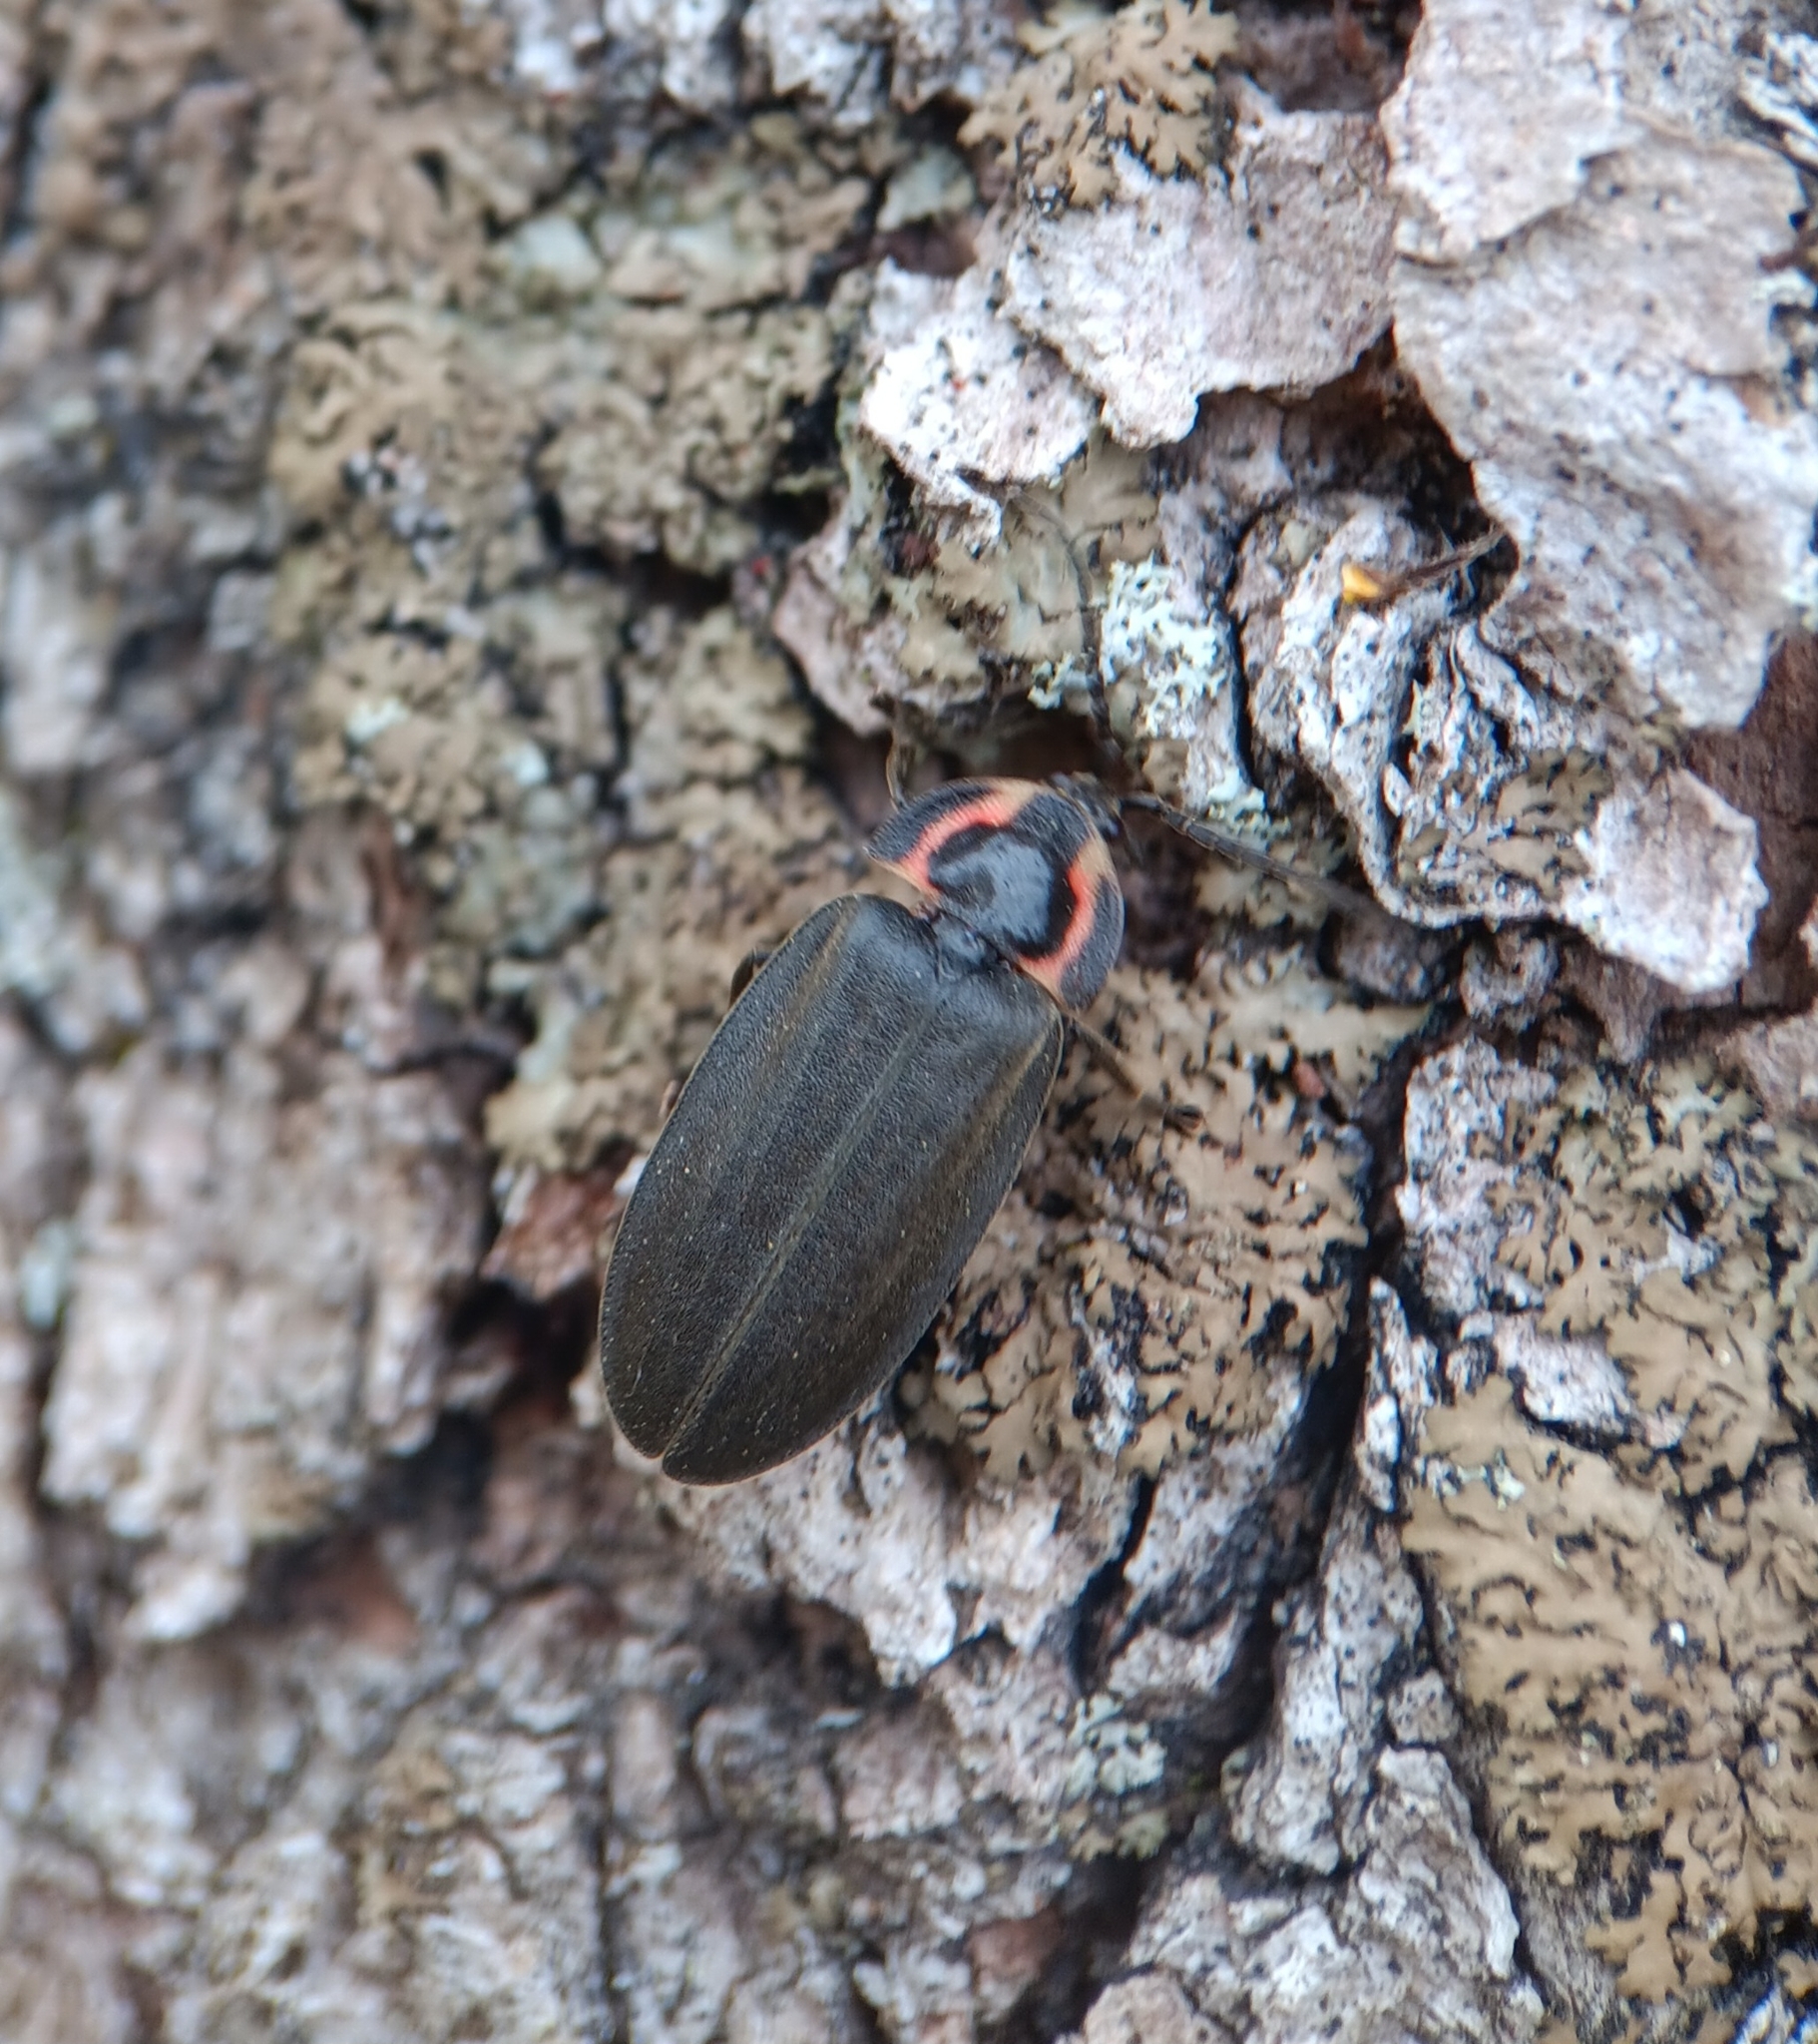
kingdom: Animalia
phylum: Arthropoda
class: Insecta
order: Coleoptera
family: Lampyridae
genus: Photinus
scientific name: Photinus corrusca
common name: Winter firefly
